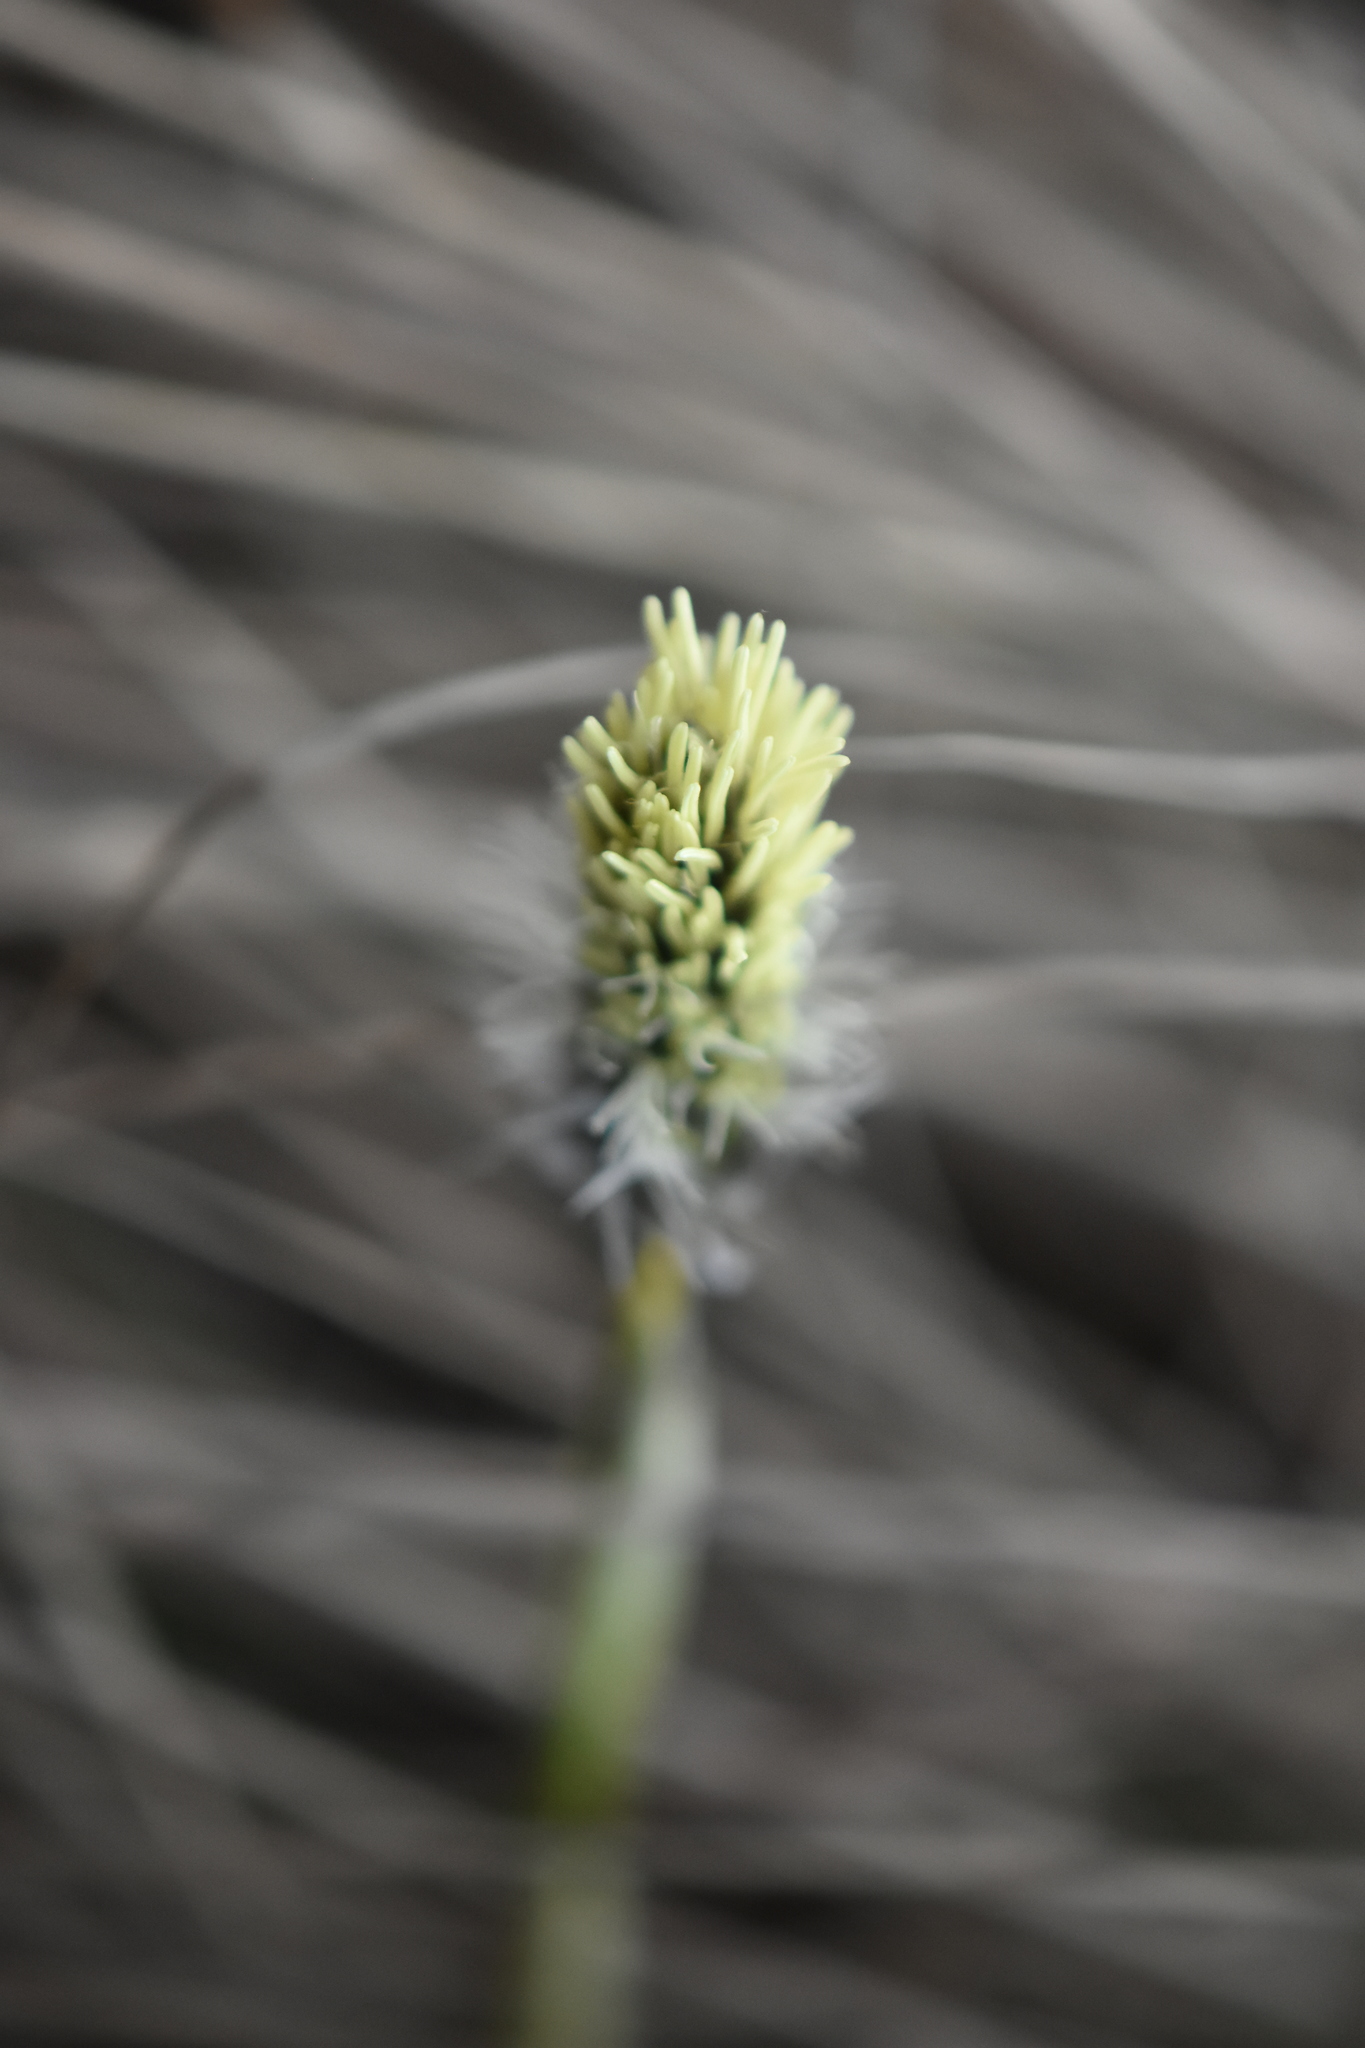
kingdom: Plantae
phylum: Tracheophyta
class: Liliopsida
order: Poales
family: Cyperaceae
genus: Eriophorum
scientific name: Eriophorum vaginatum
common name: Hare's-tail cottongrass
